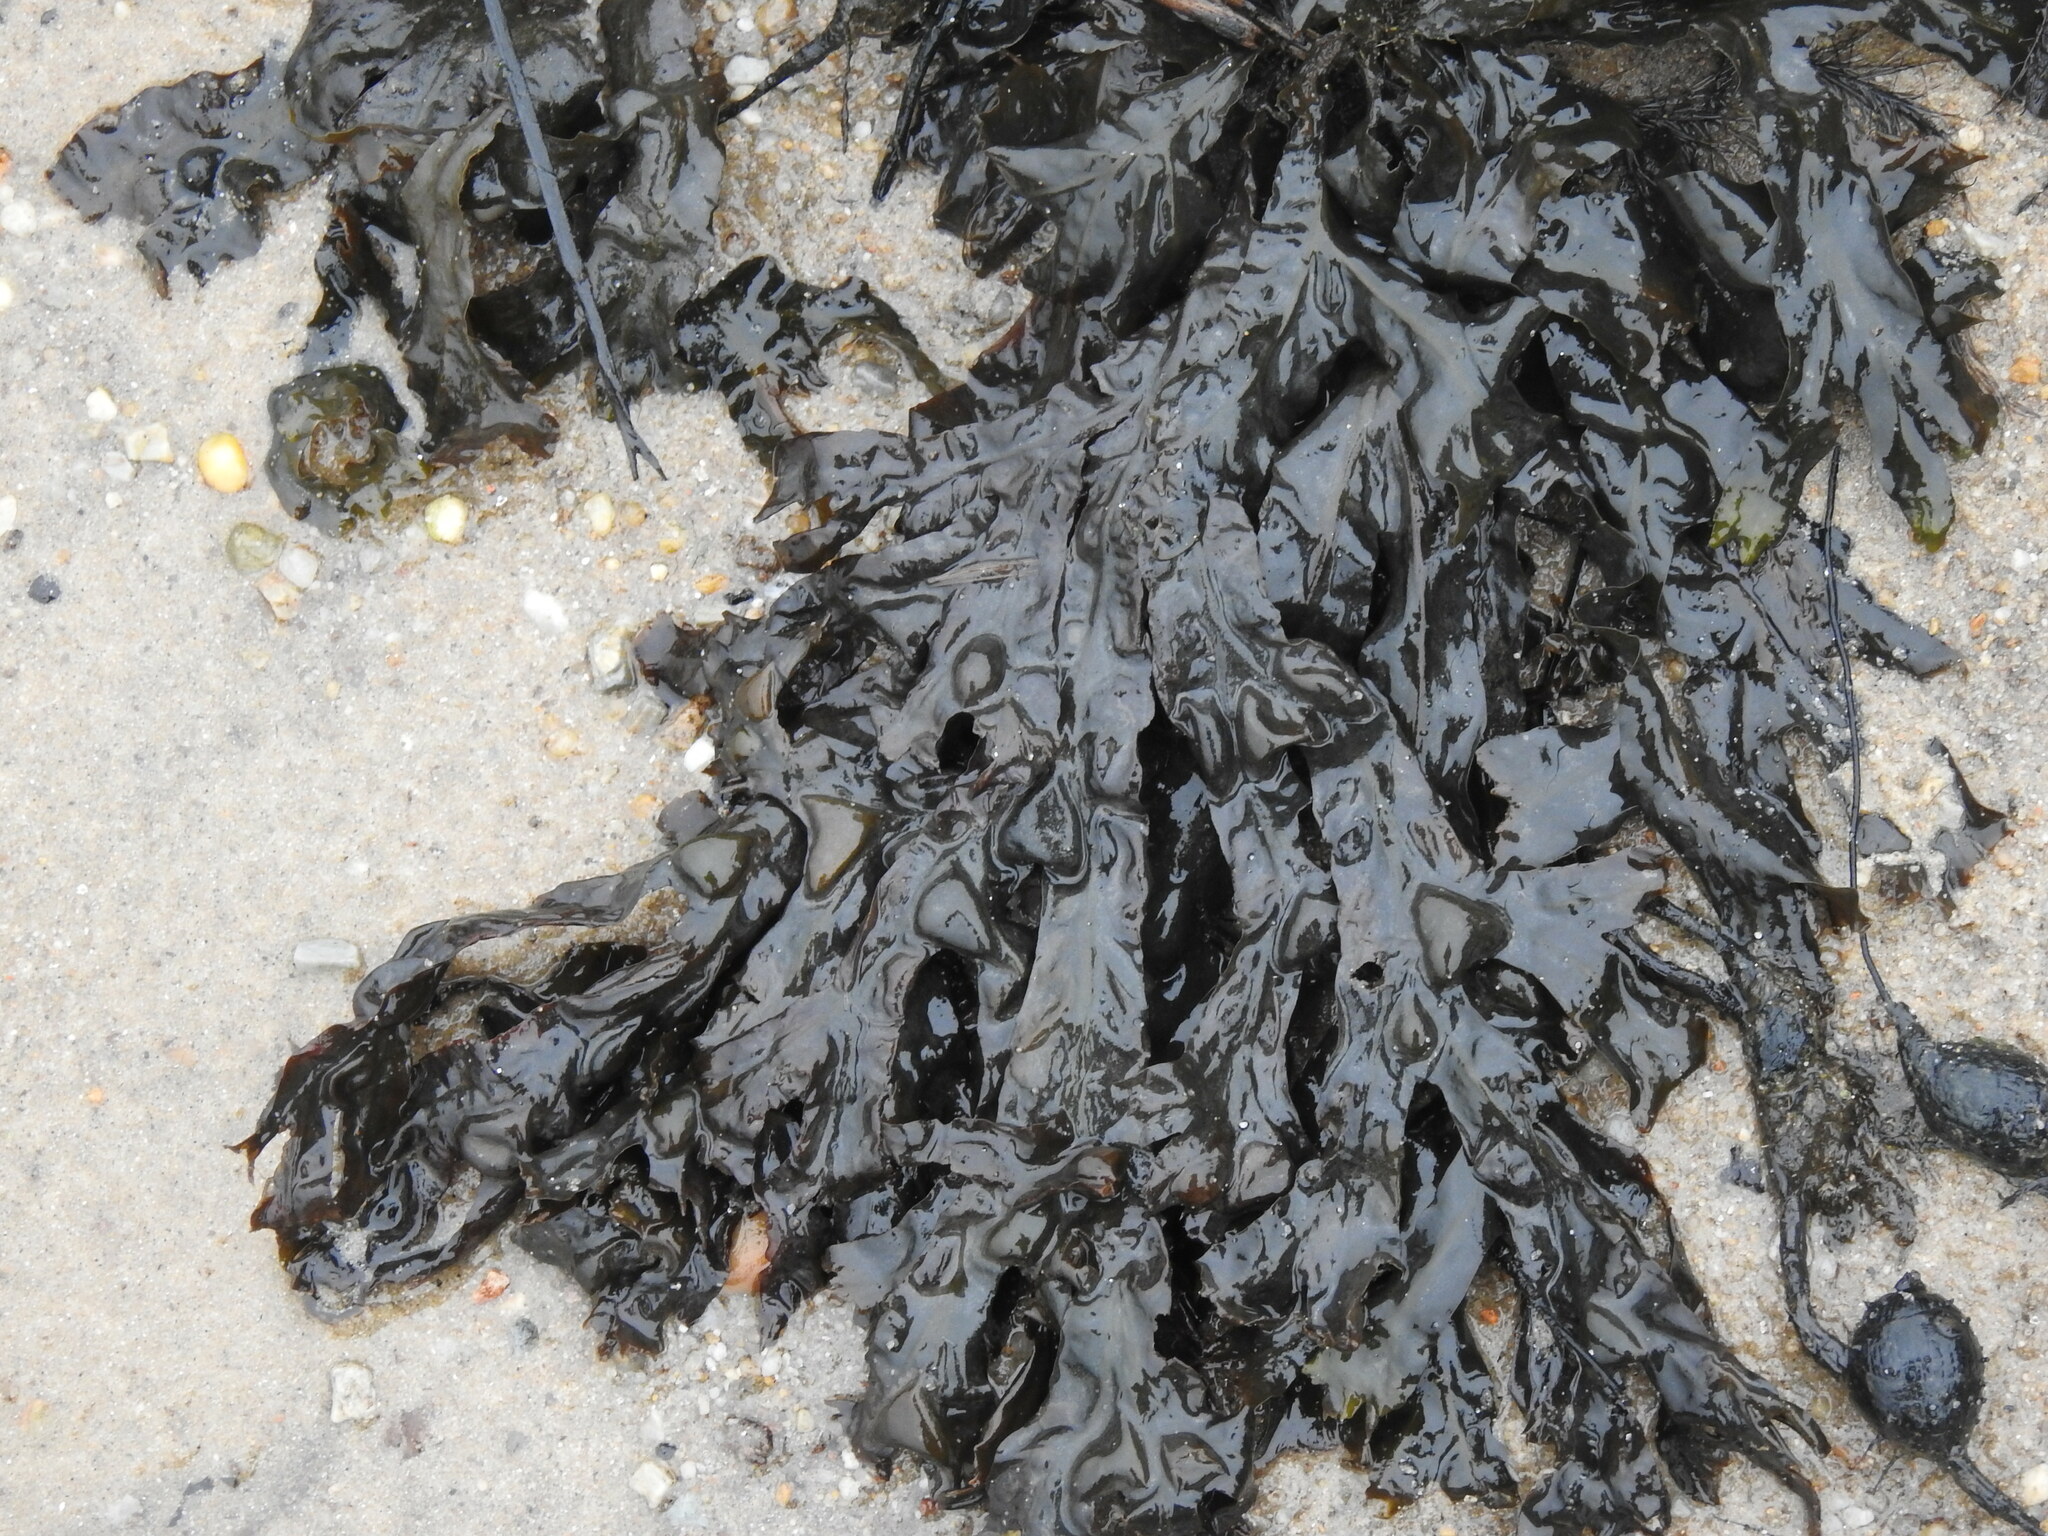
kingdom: Chromista
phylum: Ochrophyta
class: Phaeophyceae
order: Fucales
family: Fucaceae
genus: Fucus
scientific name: Fucus vesiculosus
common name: Bladder wrack
